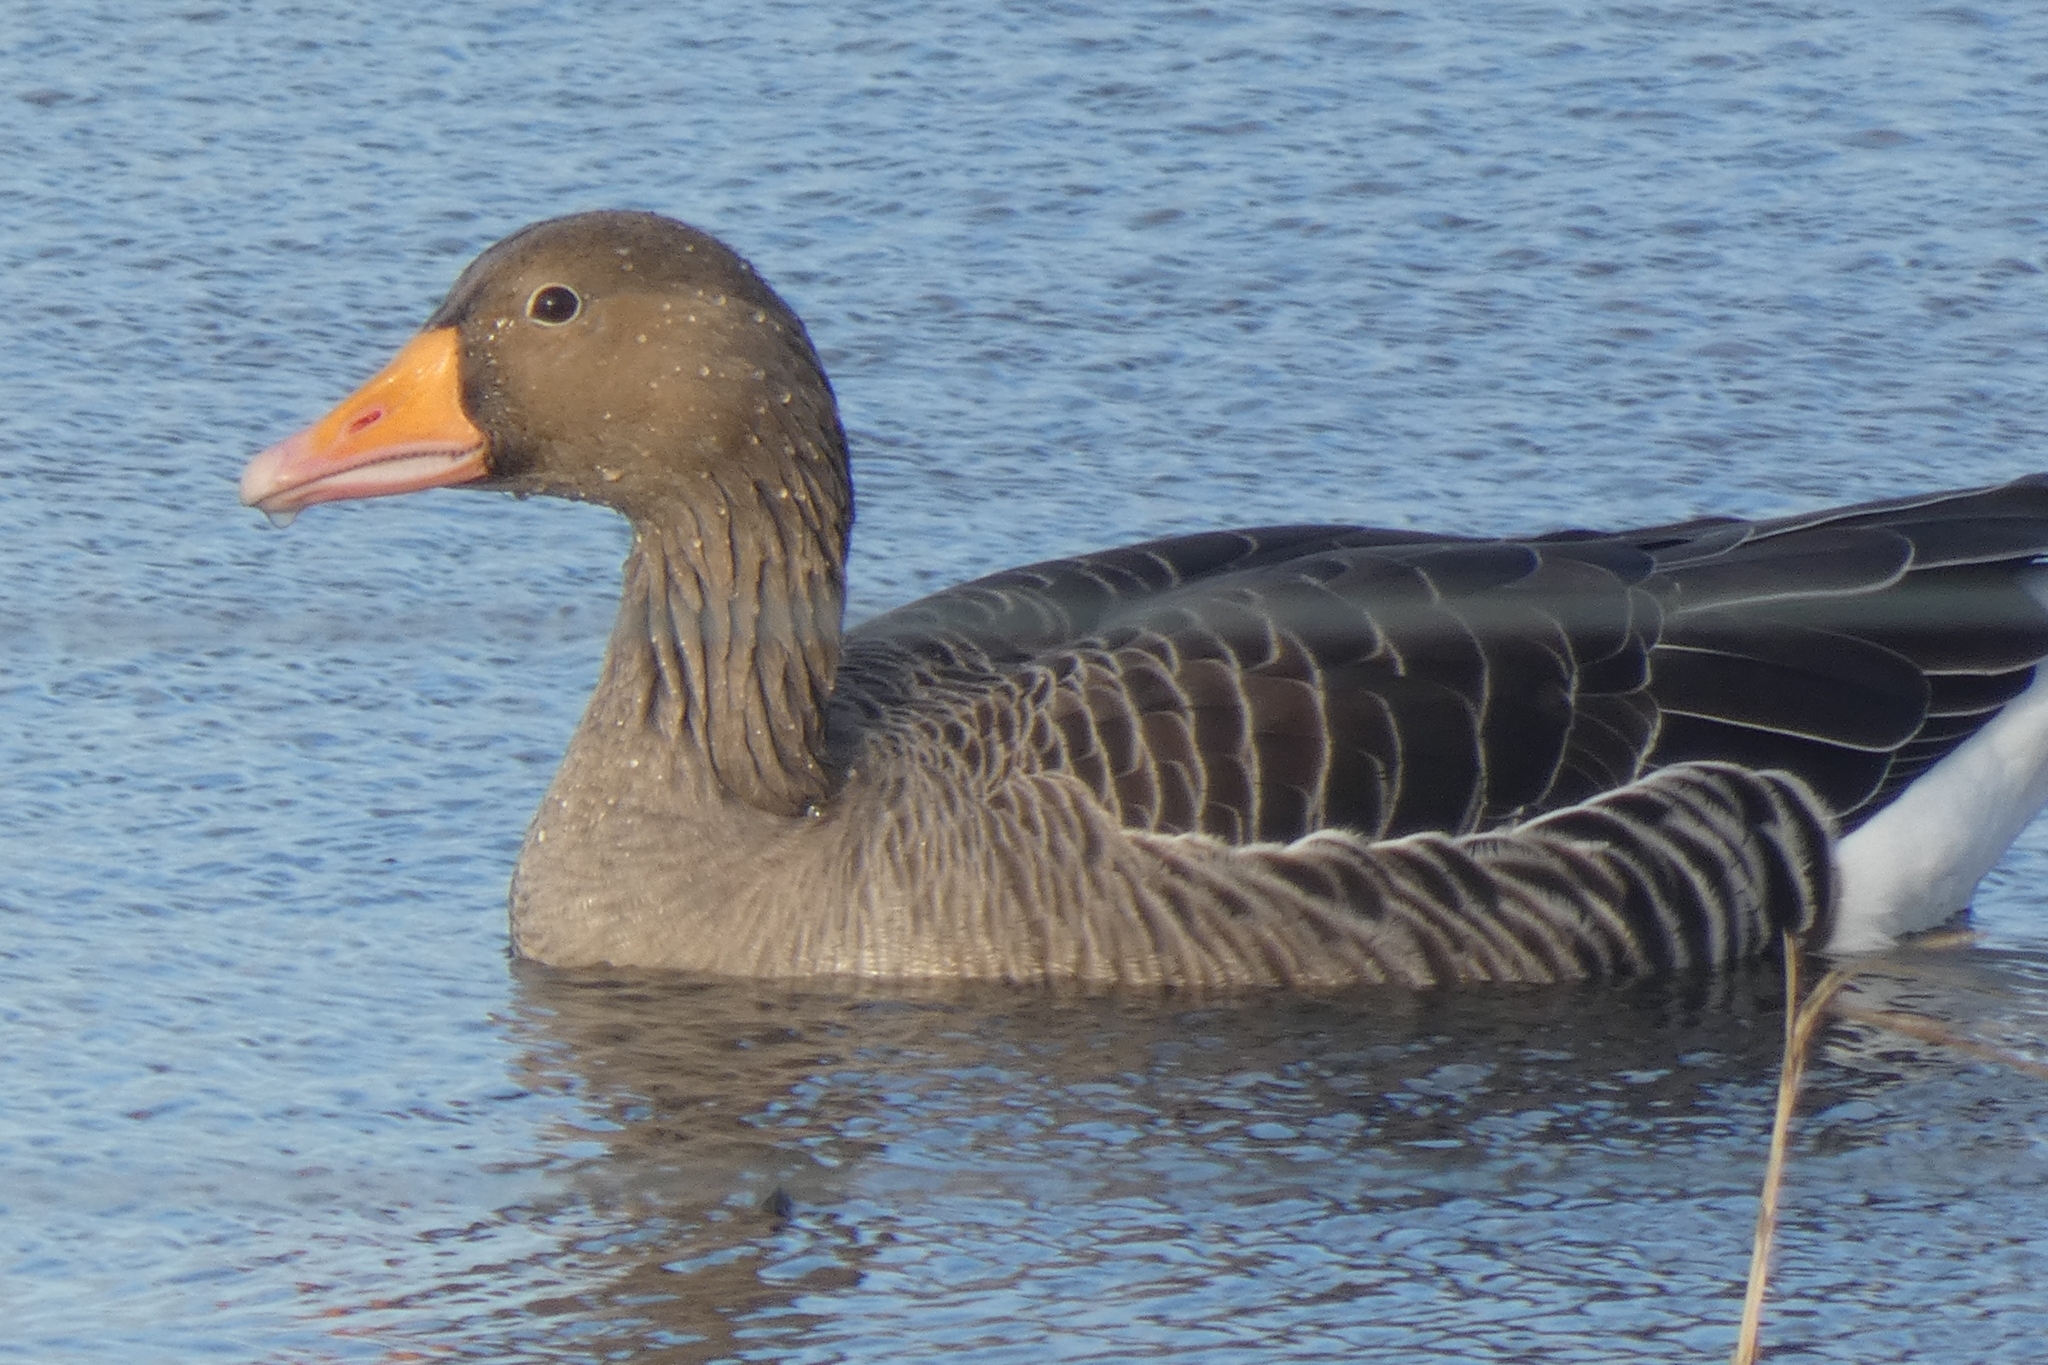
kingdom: Animalia
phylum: Chordata
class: Aves
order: Anseriformes
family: Anatidae
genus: Anser
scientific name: Anser anser
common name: Greylag goose
